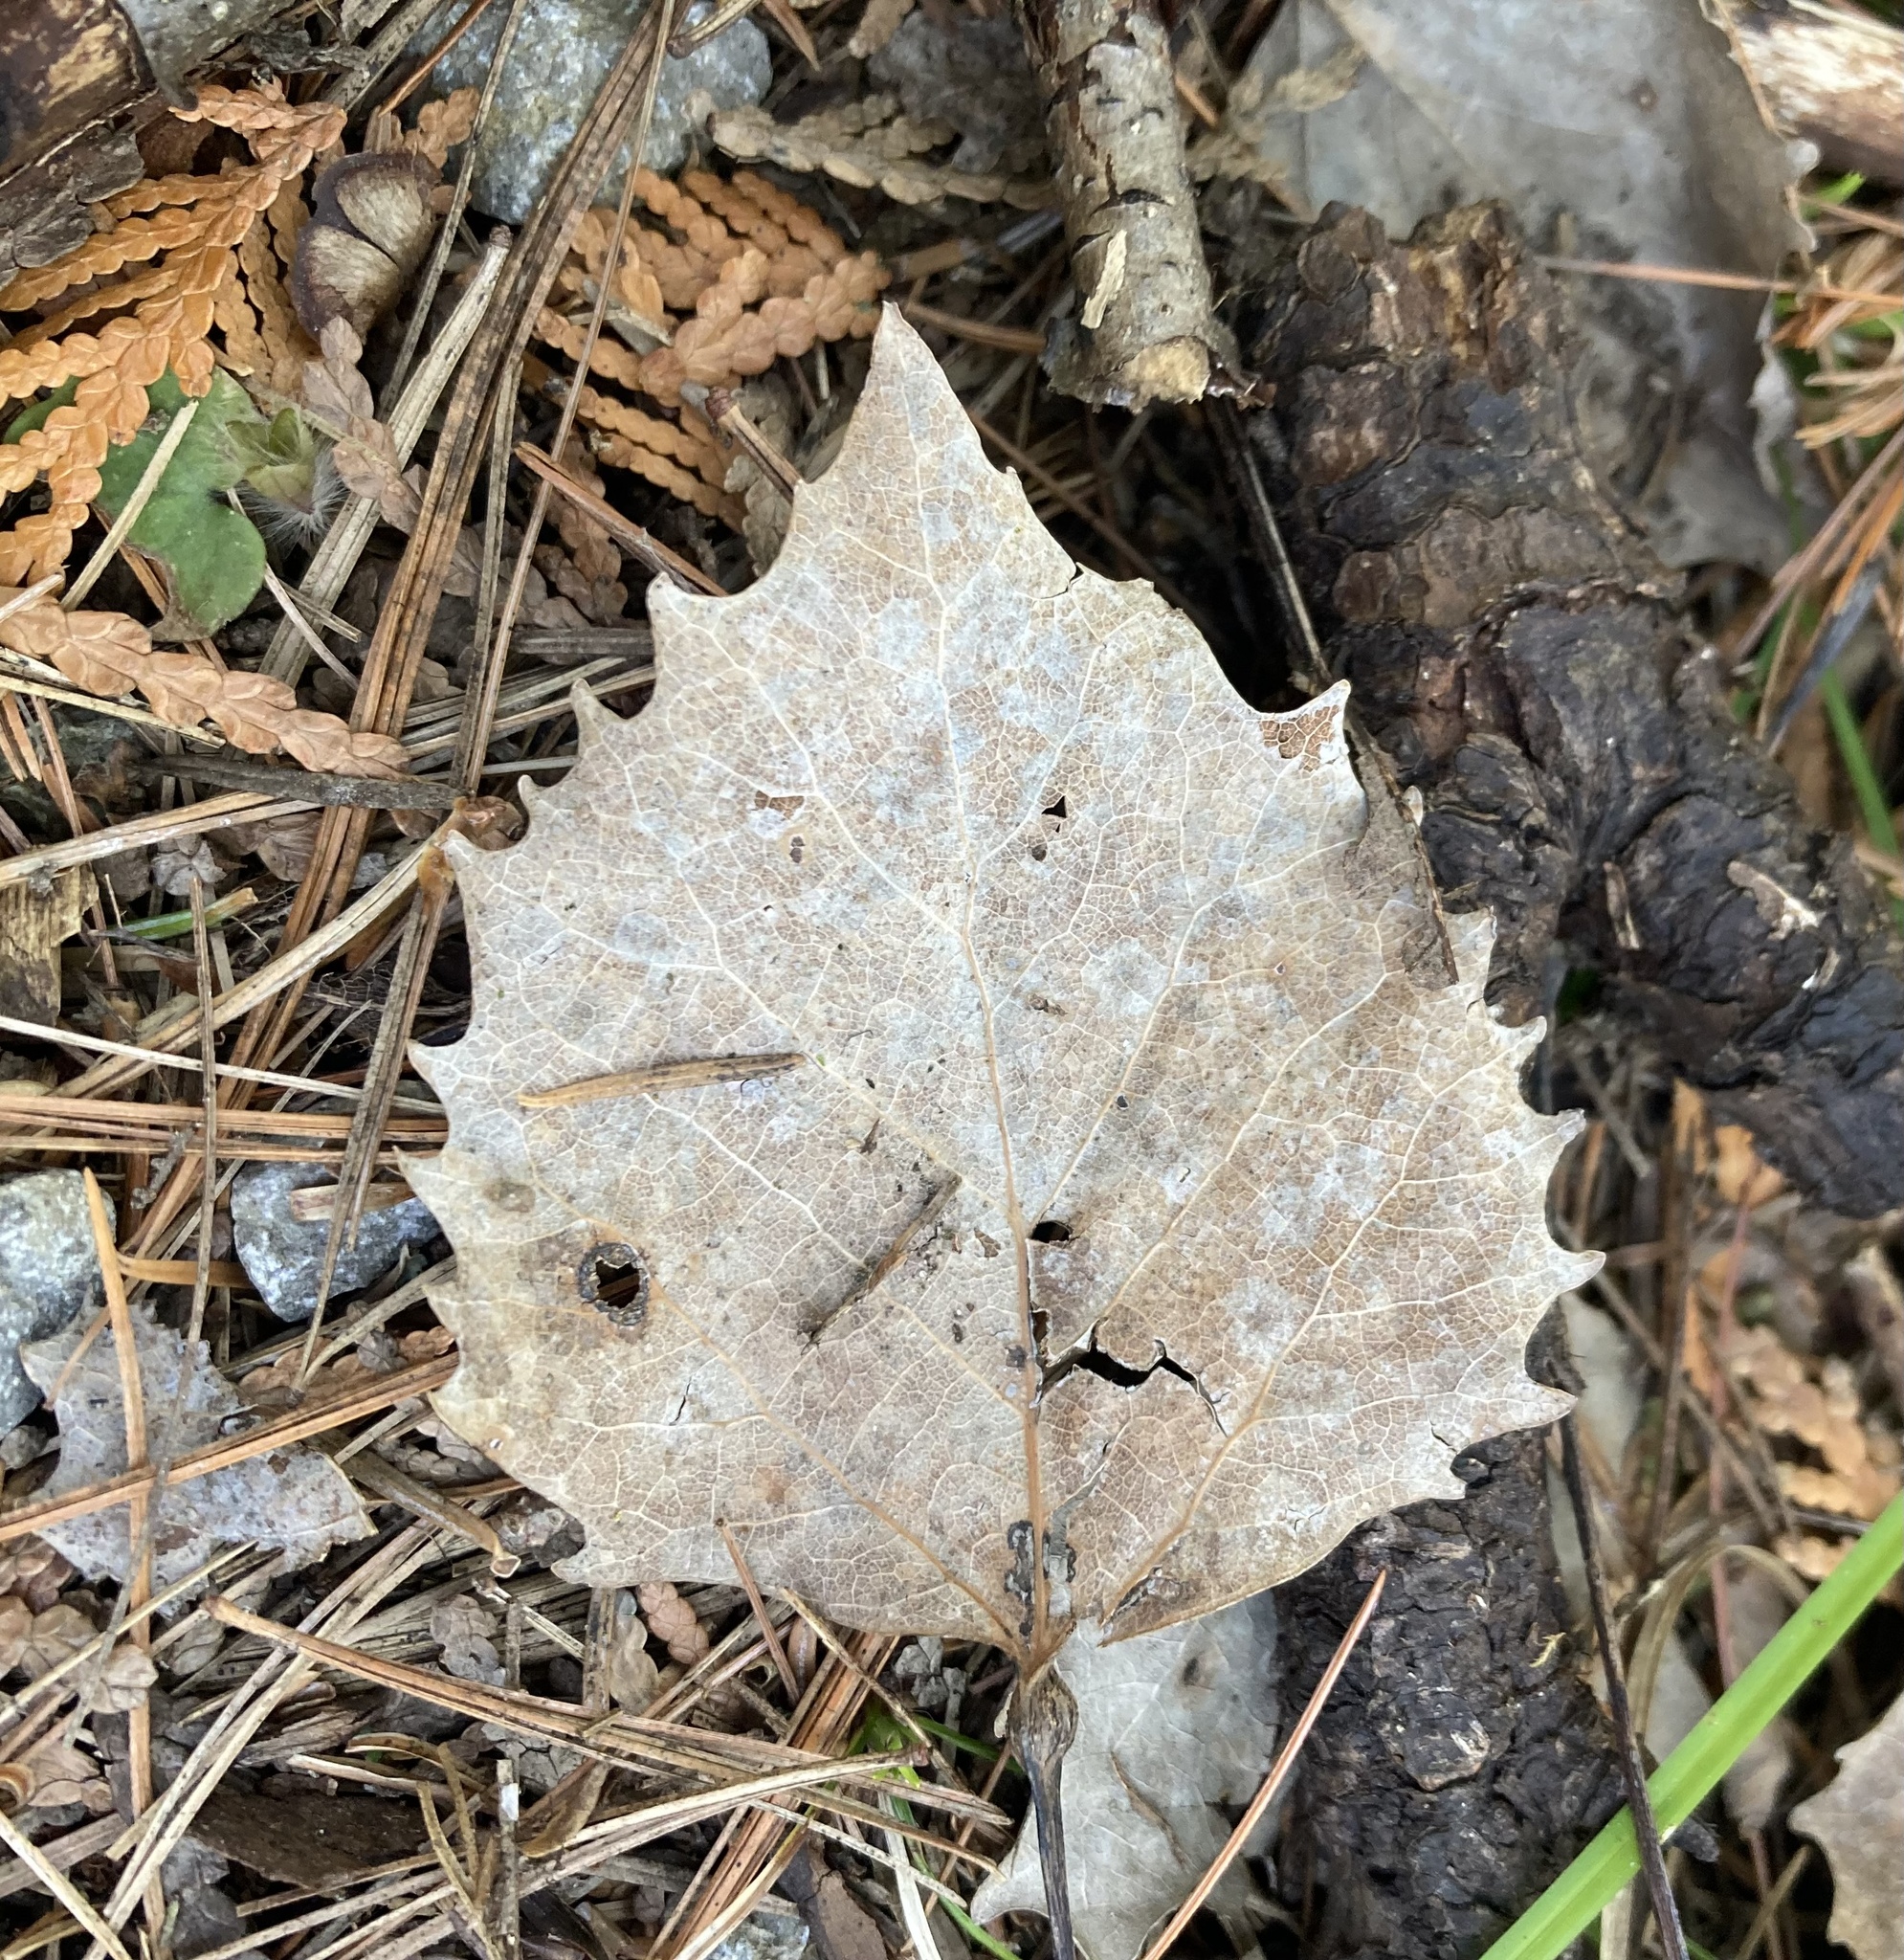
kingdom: Plantae
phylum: Tracheophyta
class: Magnoliopsida
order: Malpighiales
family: Salicaceae
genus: Populus
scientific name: Populus grandidentata
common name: Bigtooth aspen
